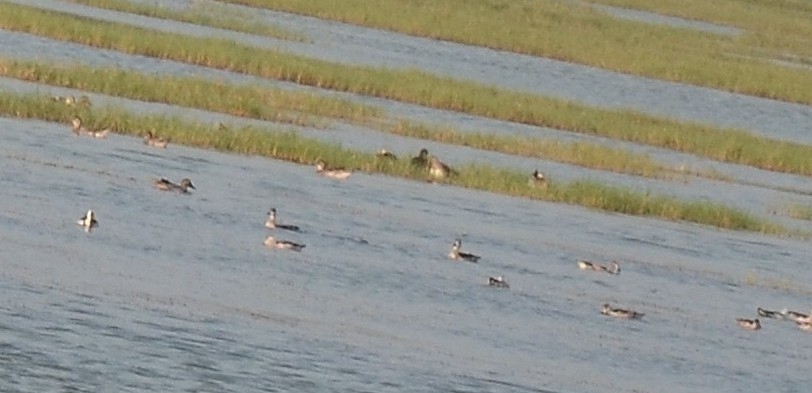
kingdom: Animalia
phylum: Chordata
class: Aves
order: Anseriformes
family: Anatidae
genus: Nettapus
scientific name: Nettapus coromandelianus
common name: Cotton pygmy-goose
